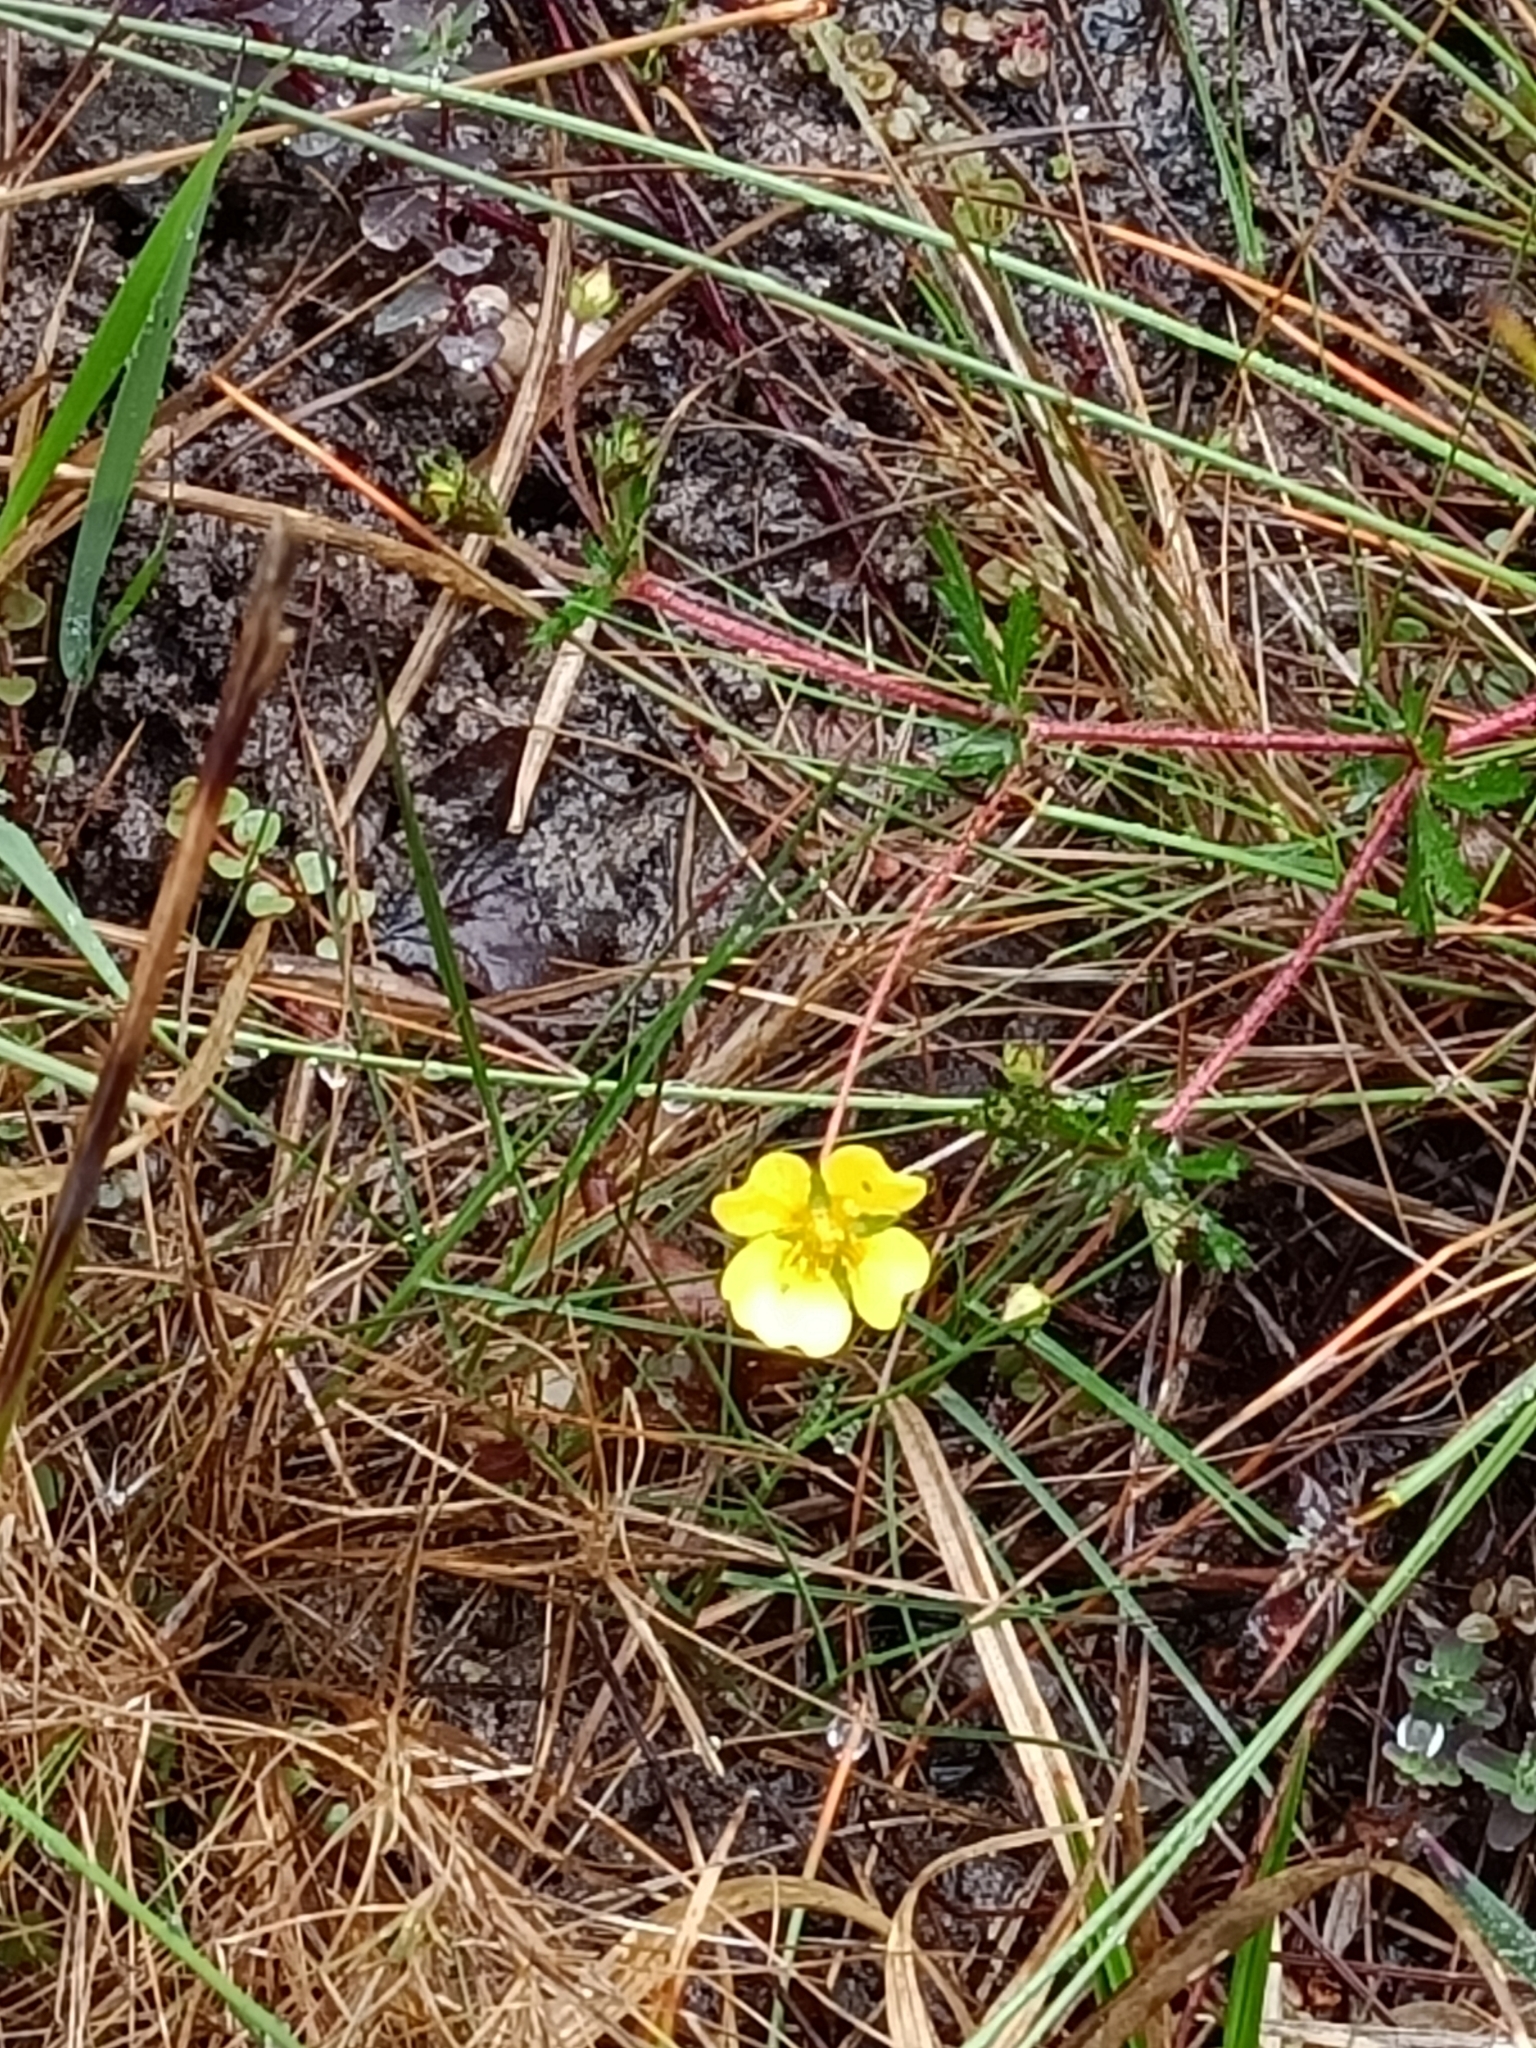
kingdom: Plantae
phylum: Tracheophyta
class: Magnoliopsida
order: Rosales
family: Rosaceae
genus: Potentilla
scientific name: Potentilla erecta
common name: Tormentil
